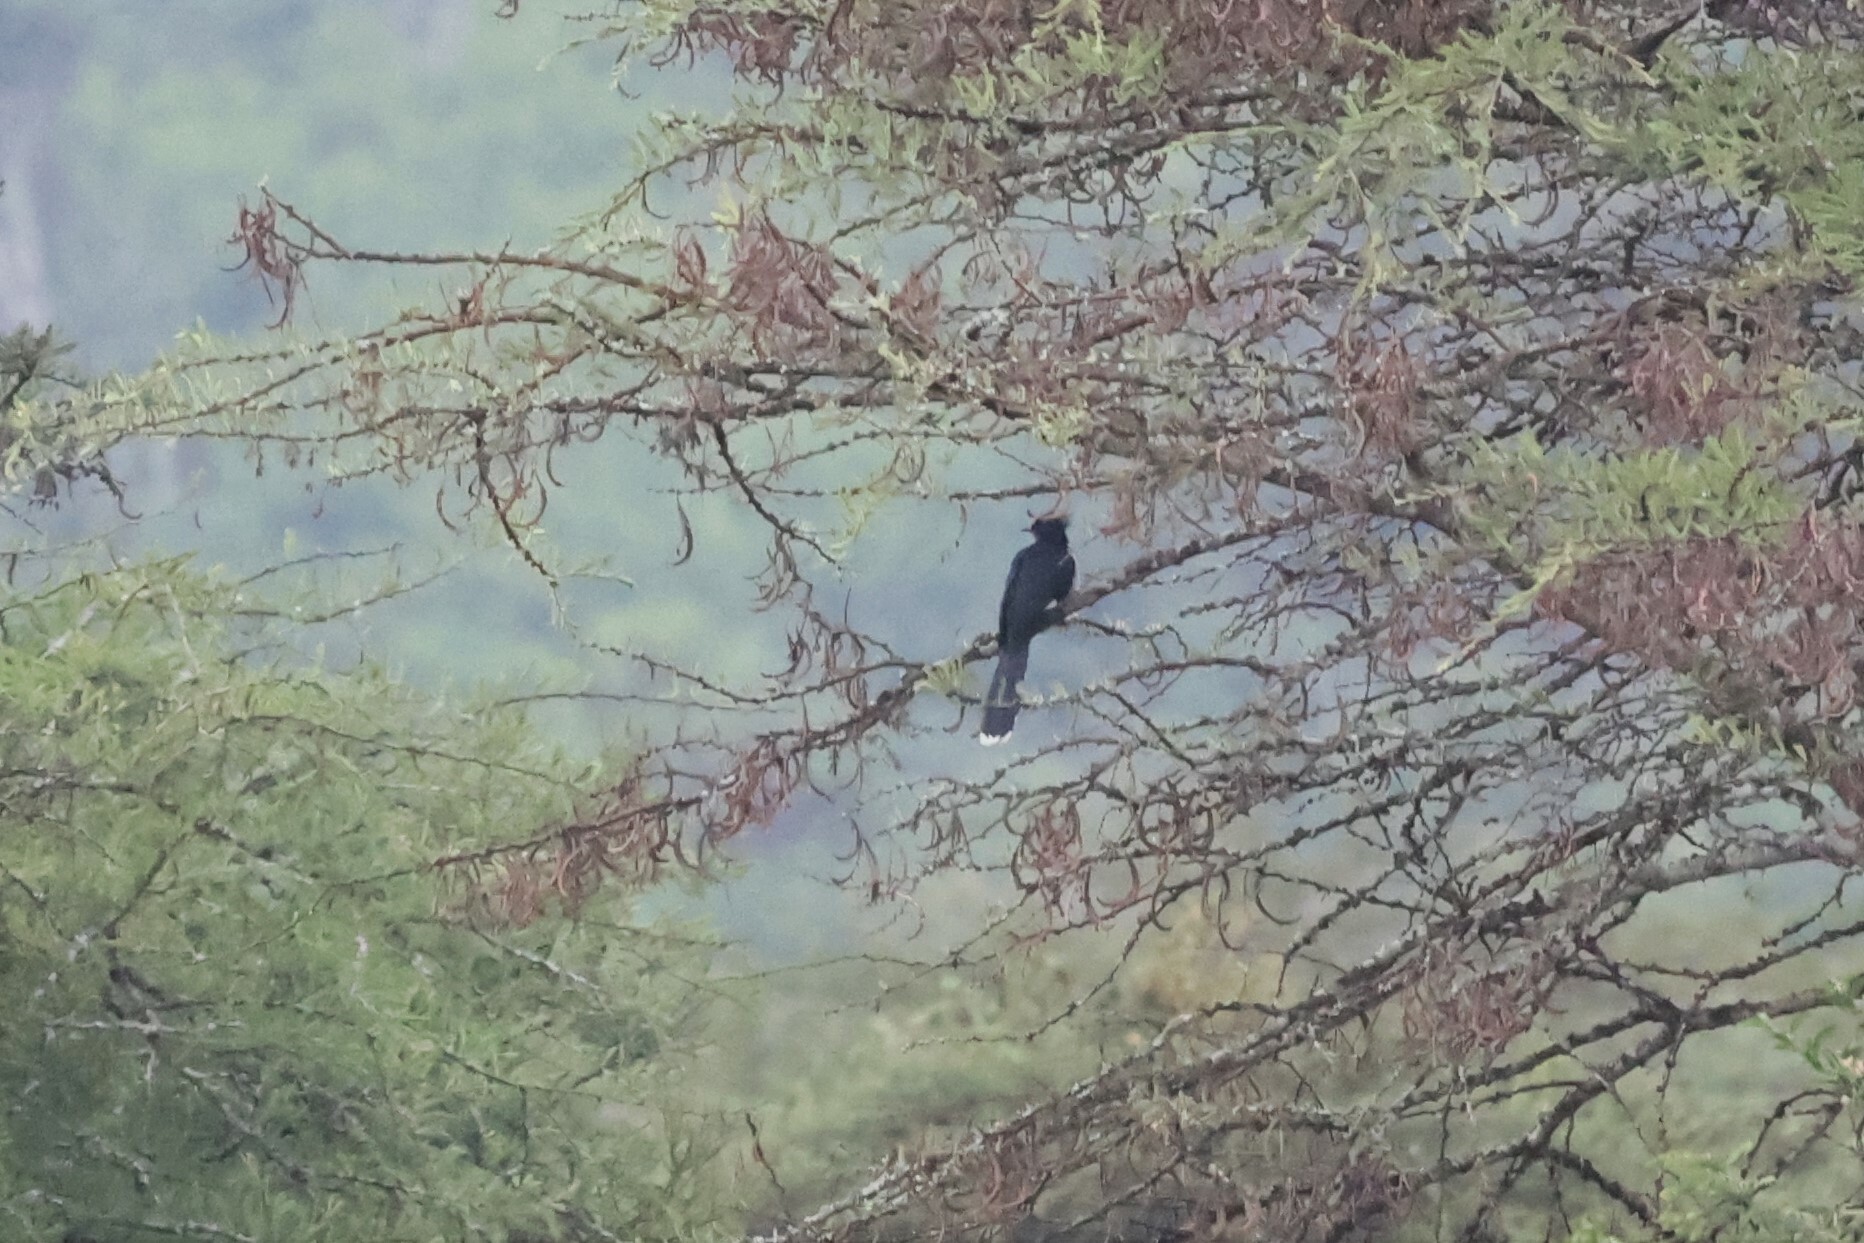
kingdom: Animalia
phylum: Chordata
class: Aves
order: Cuculiformes
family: Cuculidae
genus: Clamator
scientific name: Clamator levaillantii
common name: Levaillant's cuckoo
